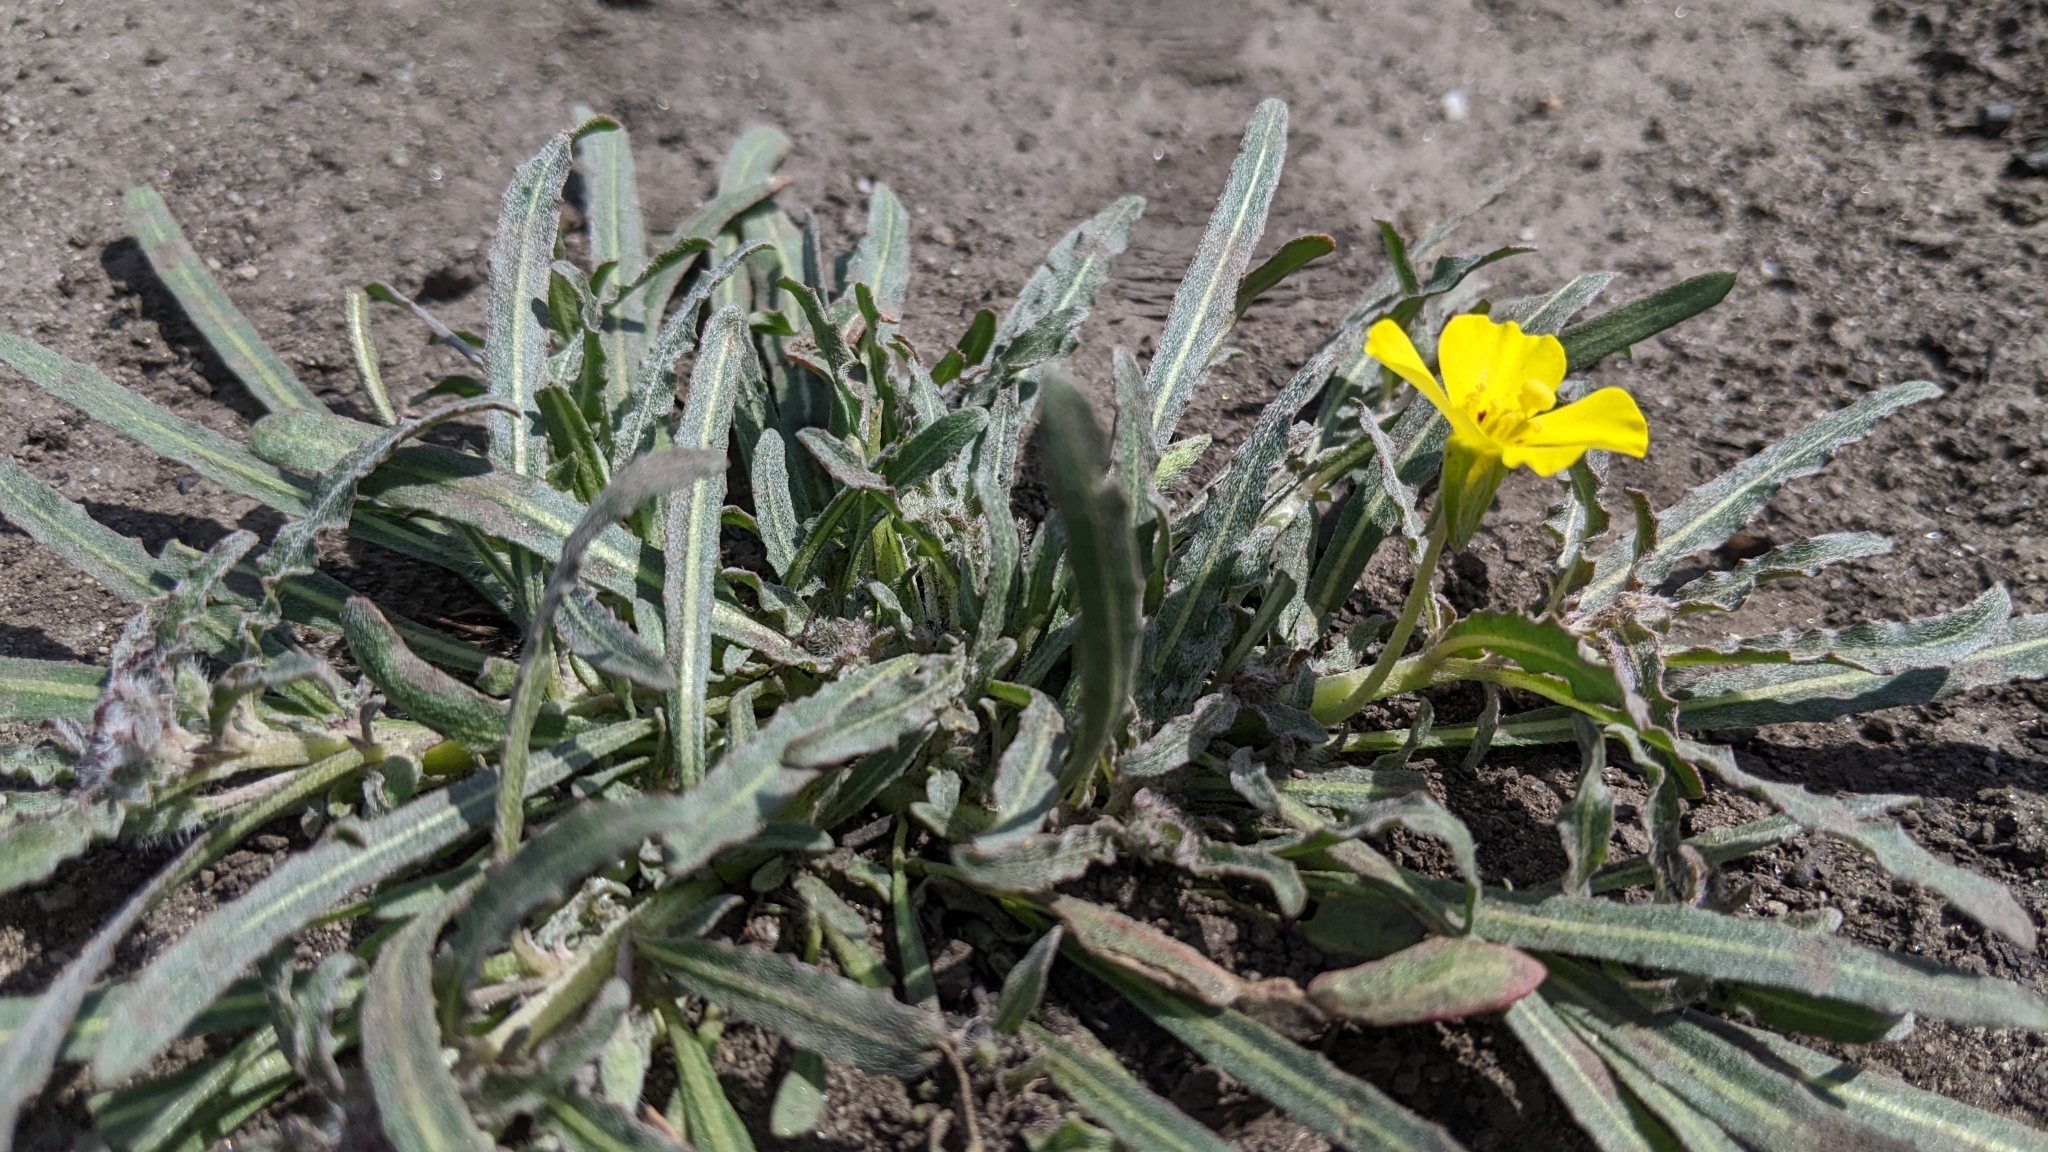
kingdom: Plantae
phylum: Tracheophyta
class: Magnoliopsida
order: Myrtales
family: Onagraceae
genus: Camissoniopsis
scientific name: Camissoniopsis bistorta
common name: Southern suncup
